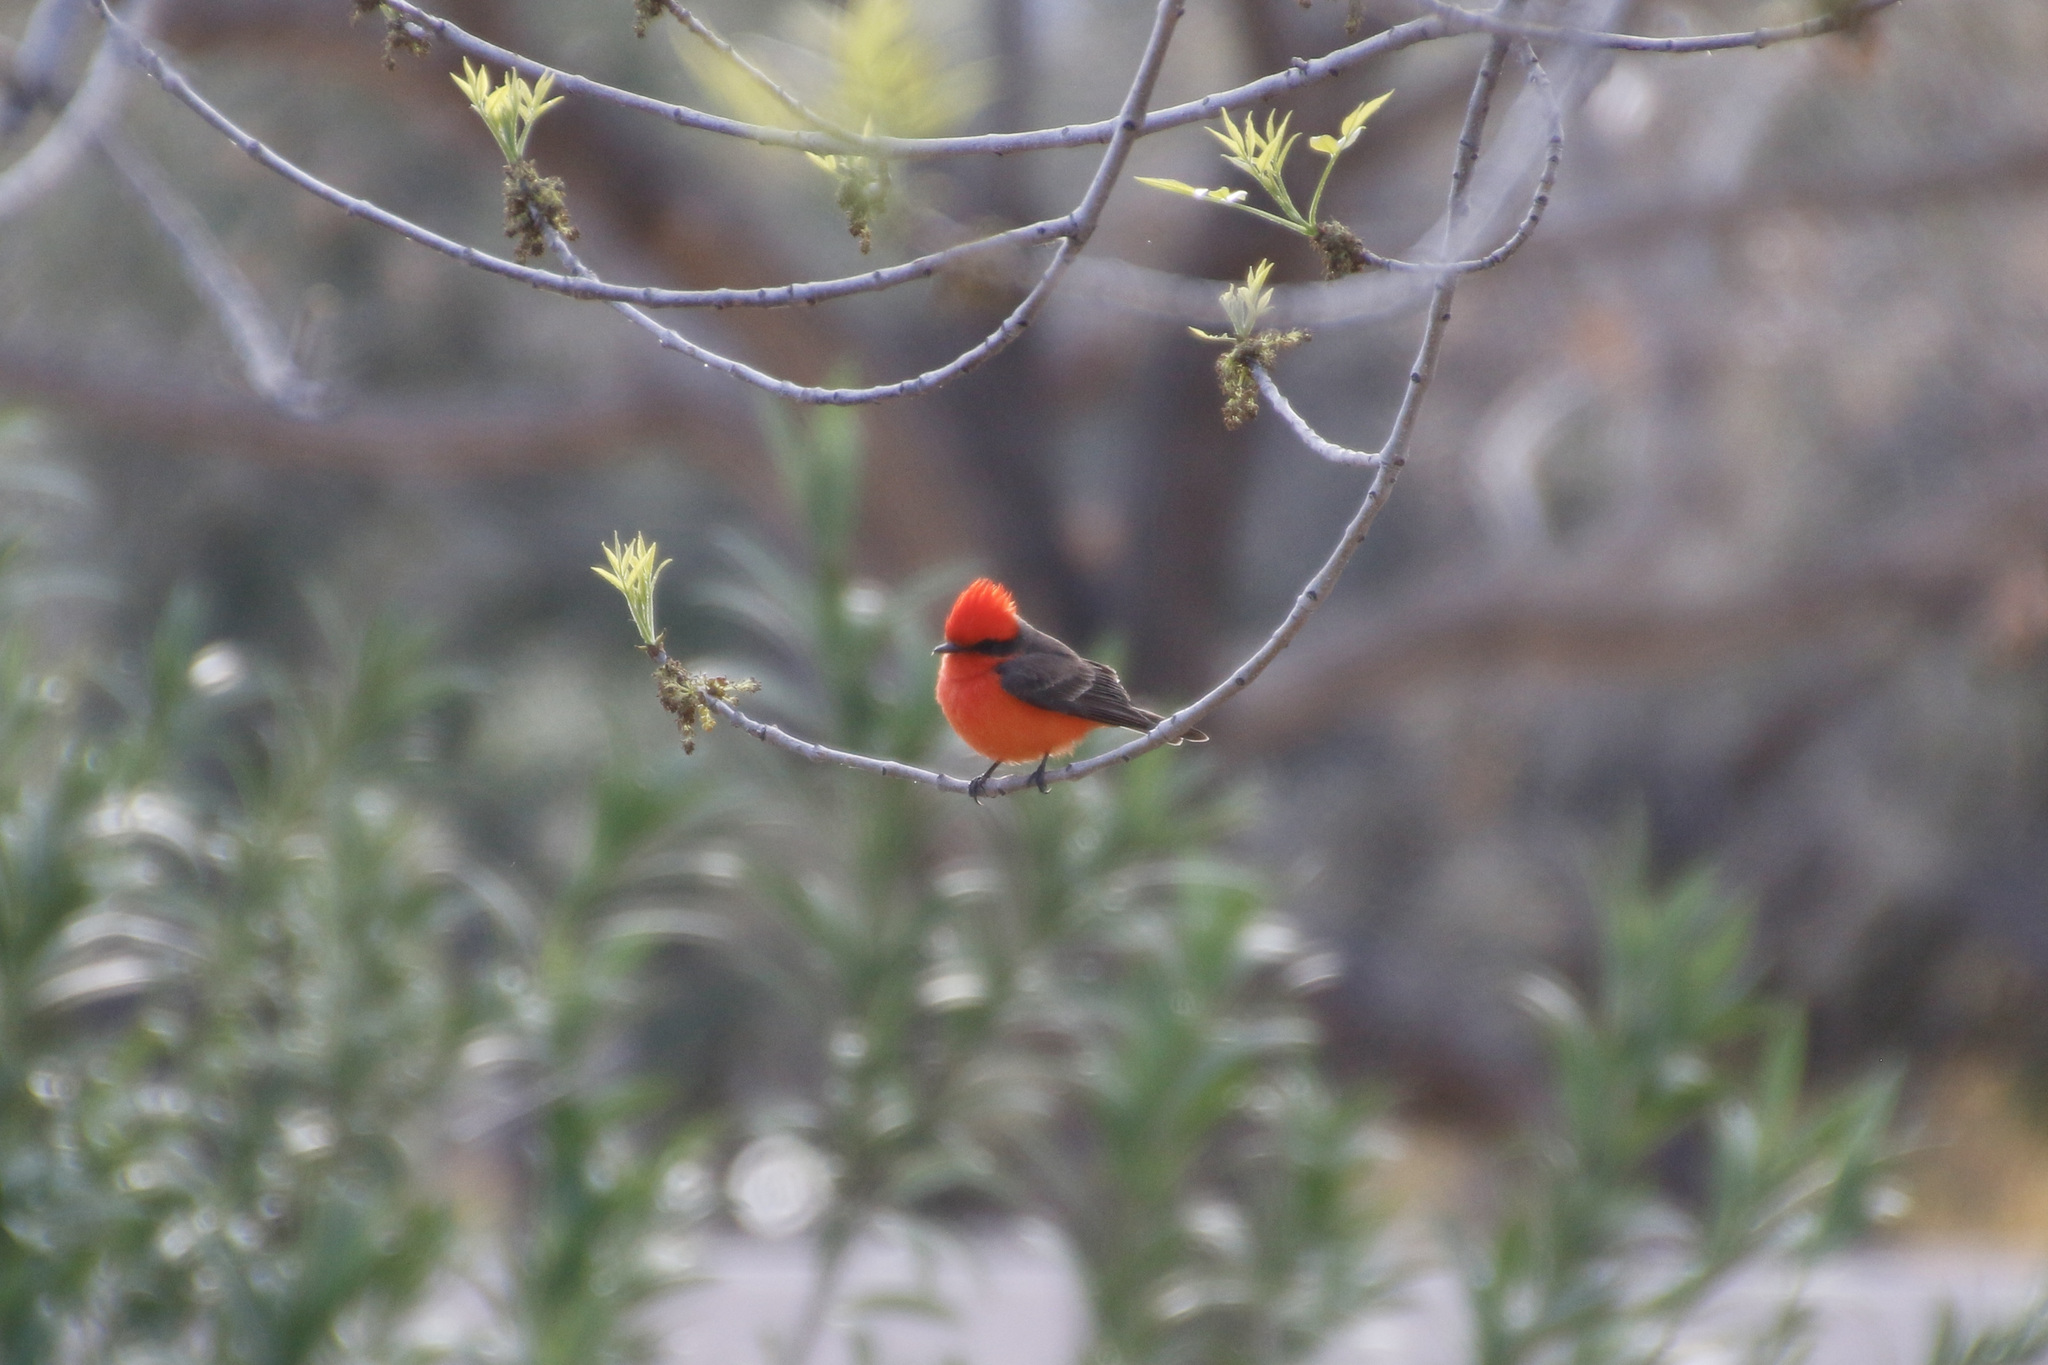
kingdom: Animalia
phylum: Chordata
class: Aves
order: Passeriformes
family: Tyrannidae
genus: Pyrocephalus
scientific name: Pyrocephalus rubinus
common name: Vermilion flycatcher
